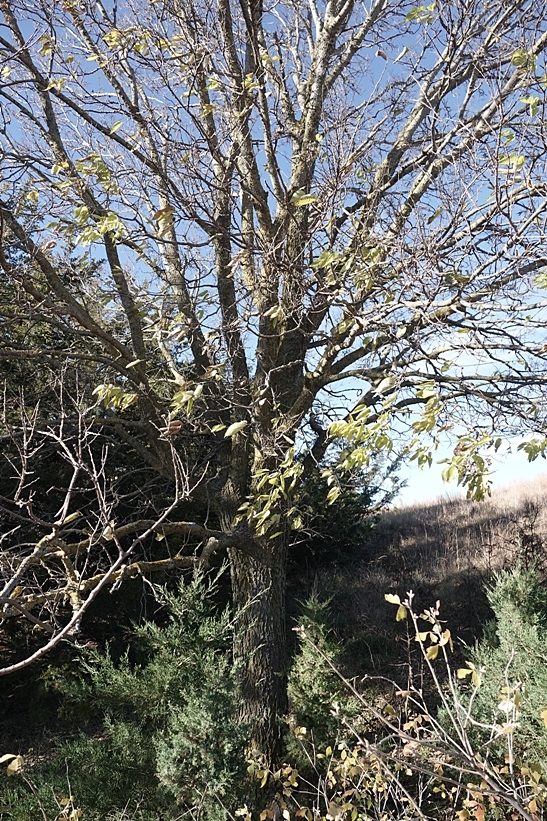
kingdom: Plantae
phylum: Tracheophyta
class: Magnoliopsida
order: Rosales
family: Cannabaceae
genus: Celtis
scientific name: Celtis occidentalis
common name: Common hackberry
